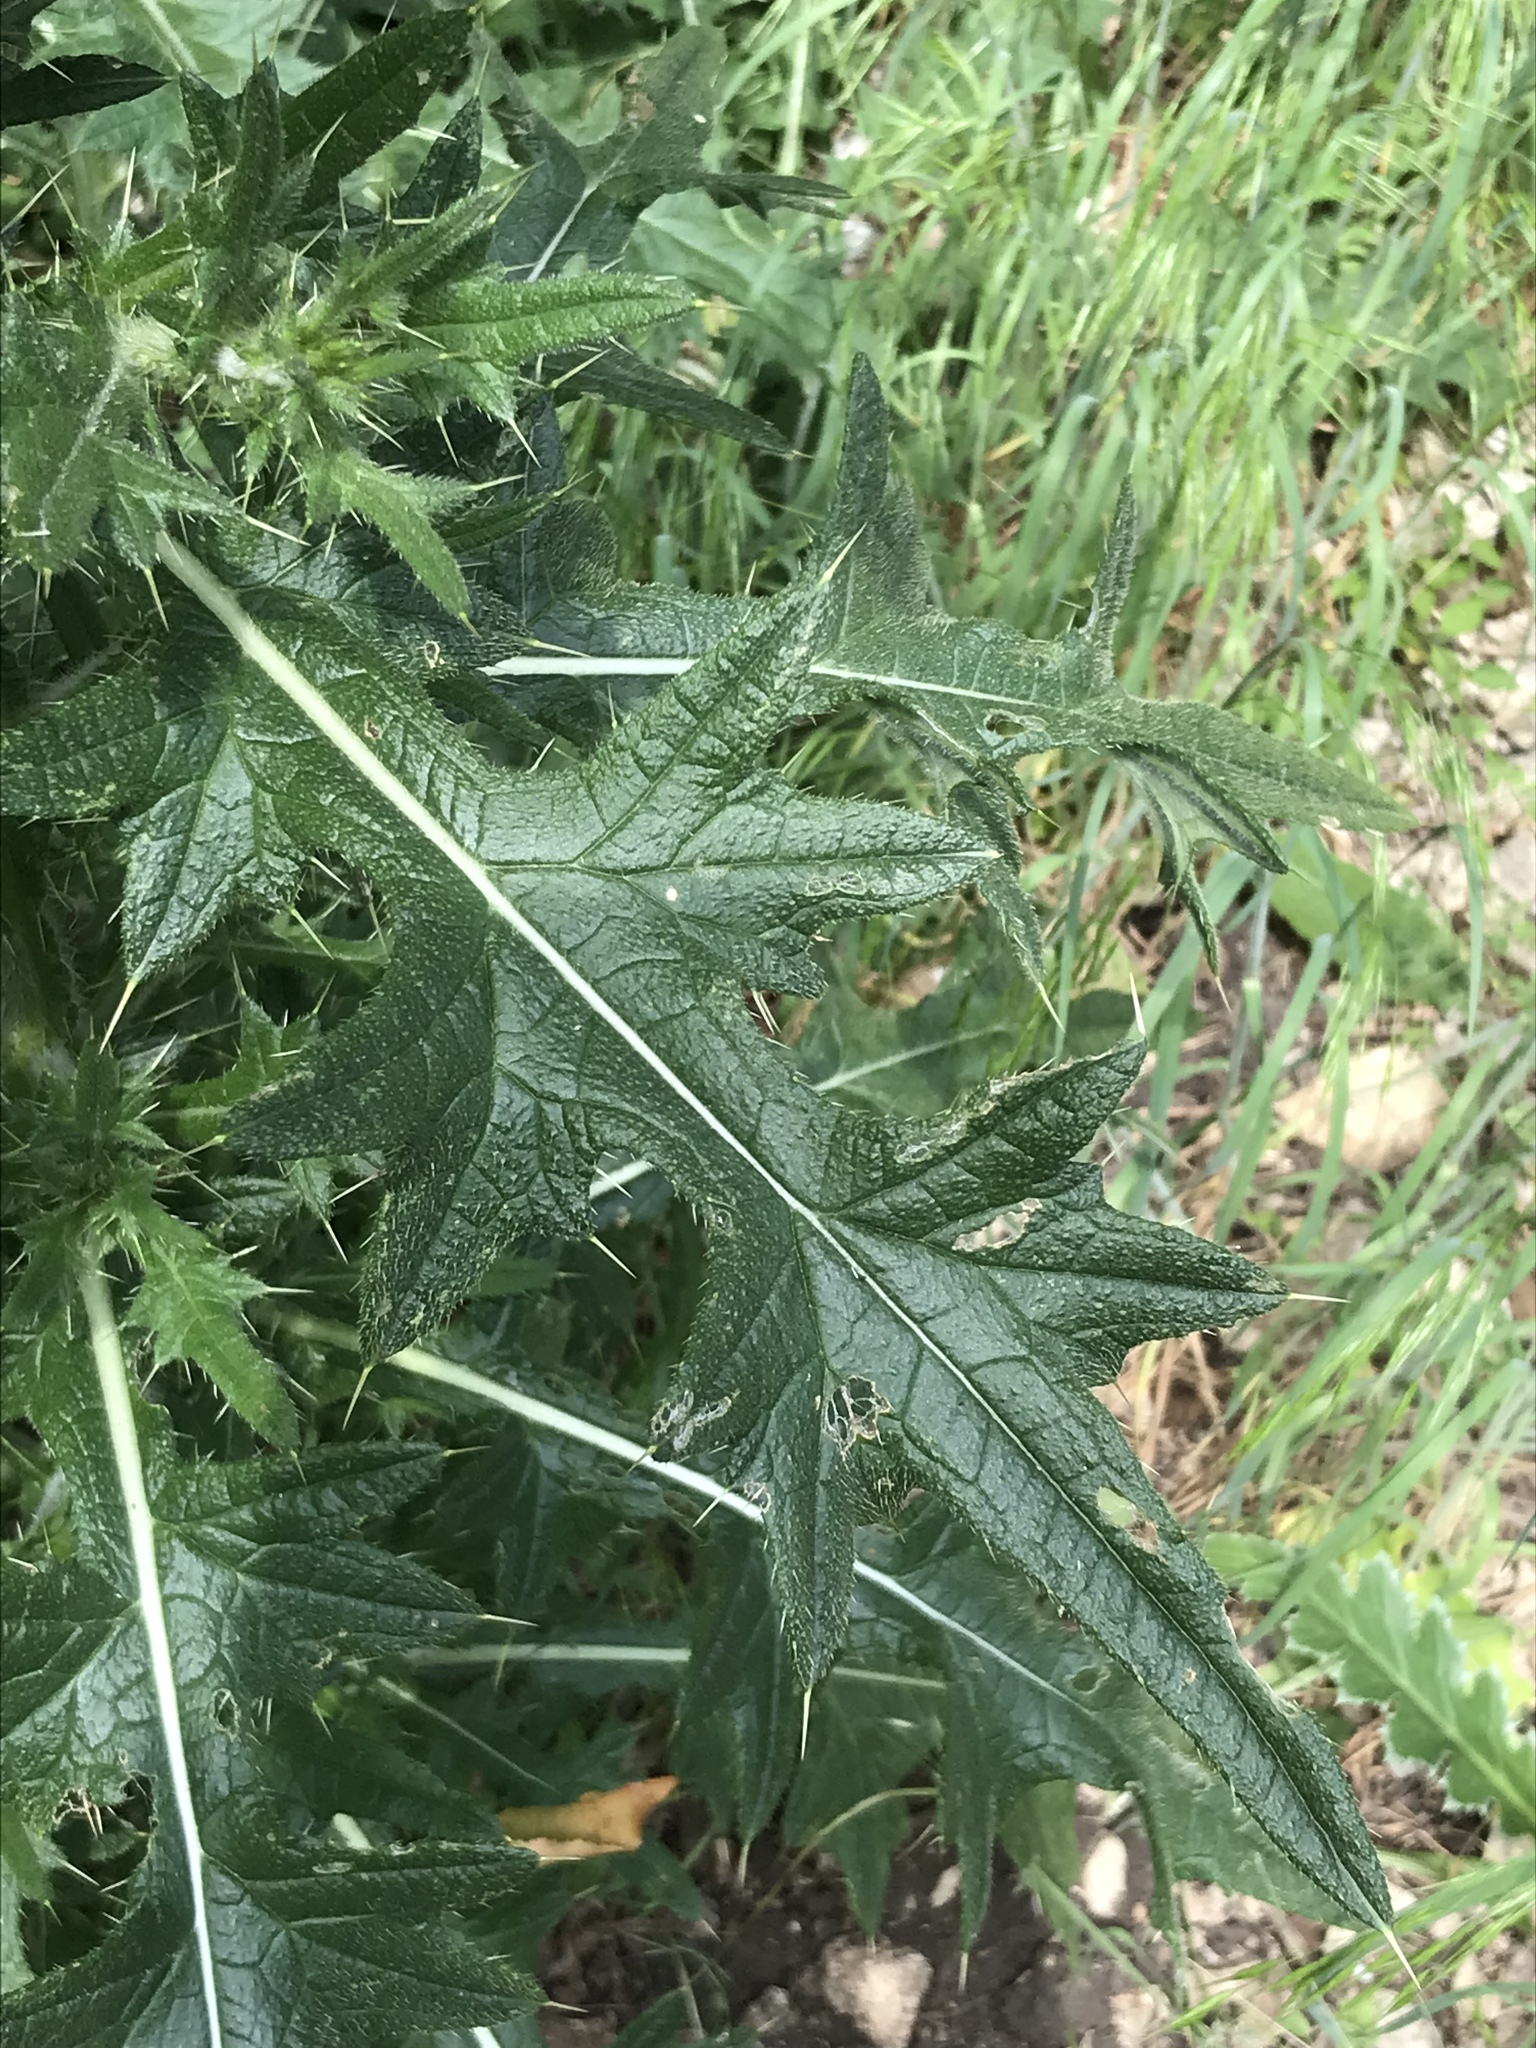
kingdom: Plantae
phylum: Tracheophyta
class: Magnoliopsida
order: Asterales
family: Asteraceae
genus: Cirsium
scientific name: Cirsium vulgare
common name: Bull thistle
